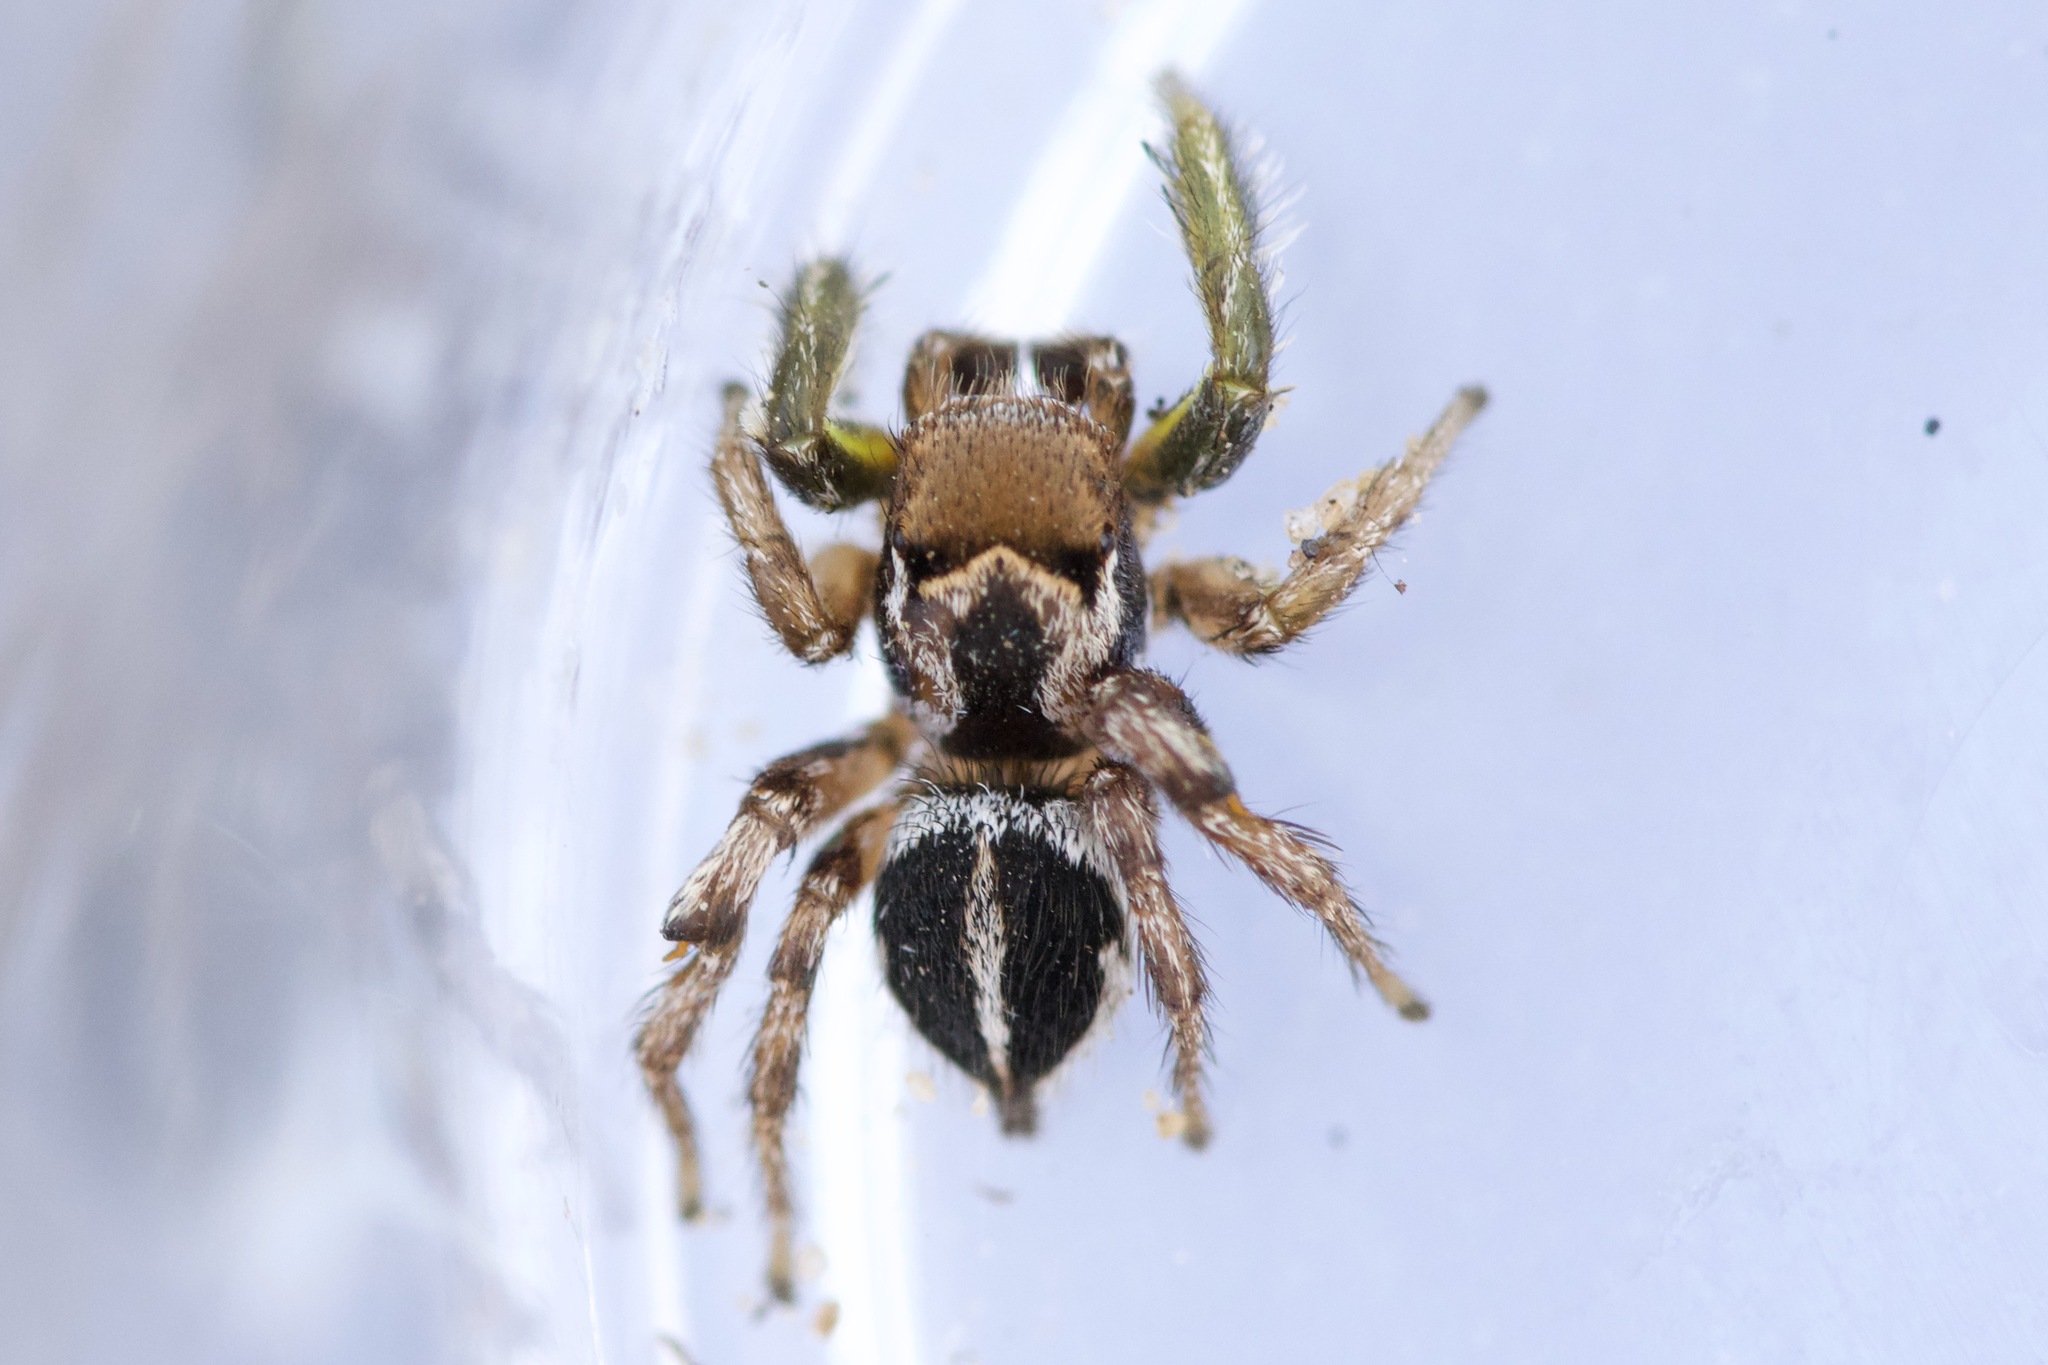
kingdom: Animalia
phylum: Arthropoda
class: Arachnida
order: Araneae
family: Salticidae
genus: Habronattus
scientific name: Habronattus viridipes
